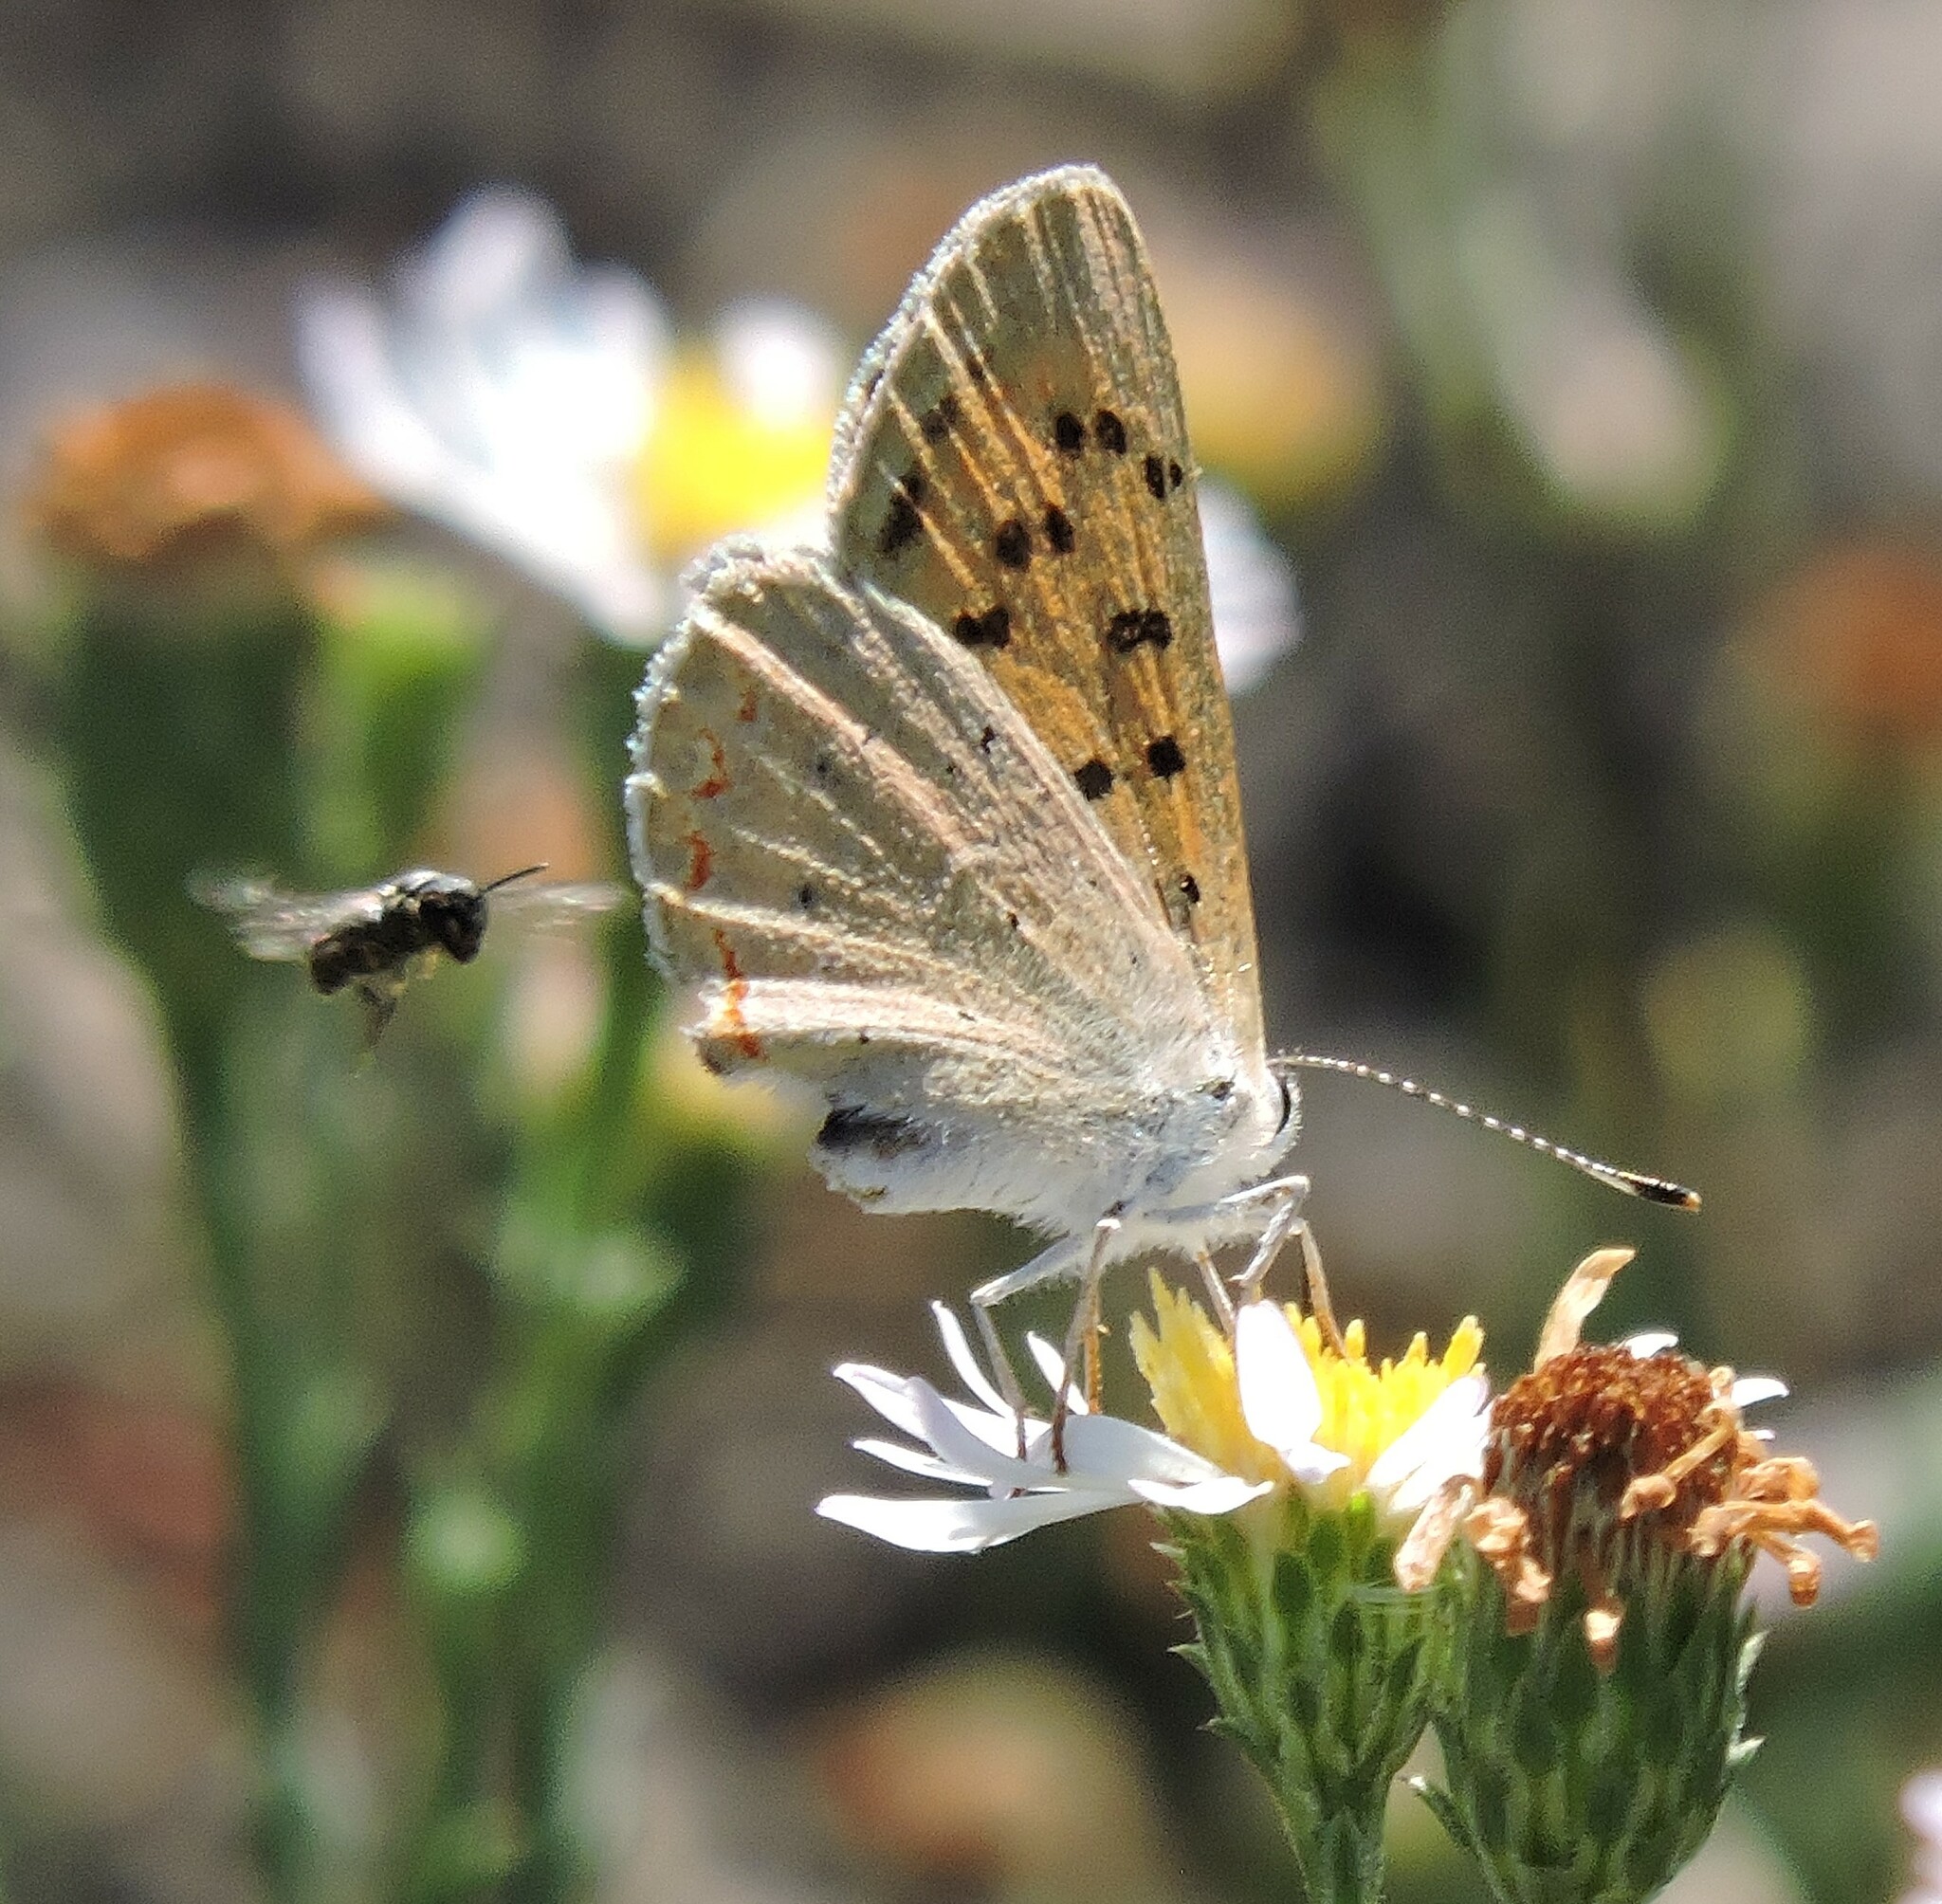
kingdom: Animalia
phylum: Arthropoda
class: Insecta
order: Lepidoptera
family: Lycaenidae
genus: Tharsalea
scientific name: Tharsalea helloides
